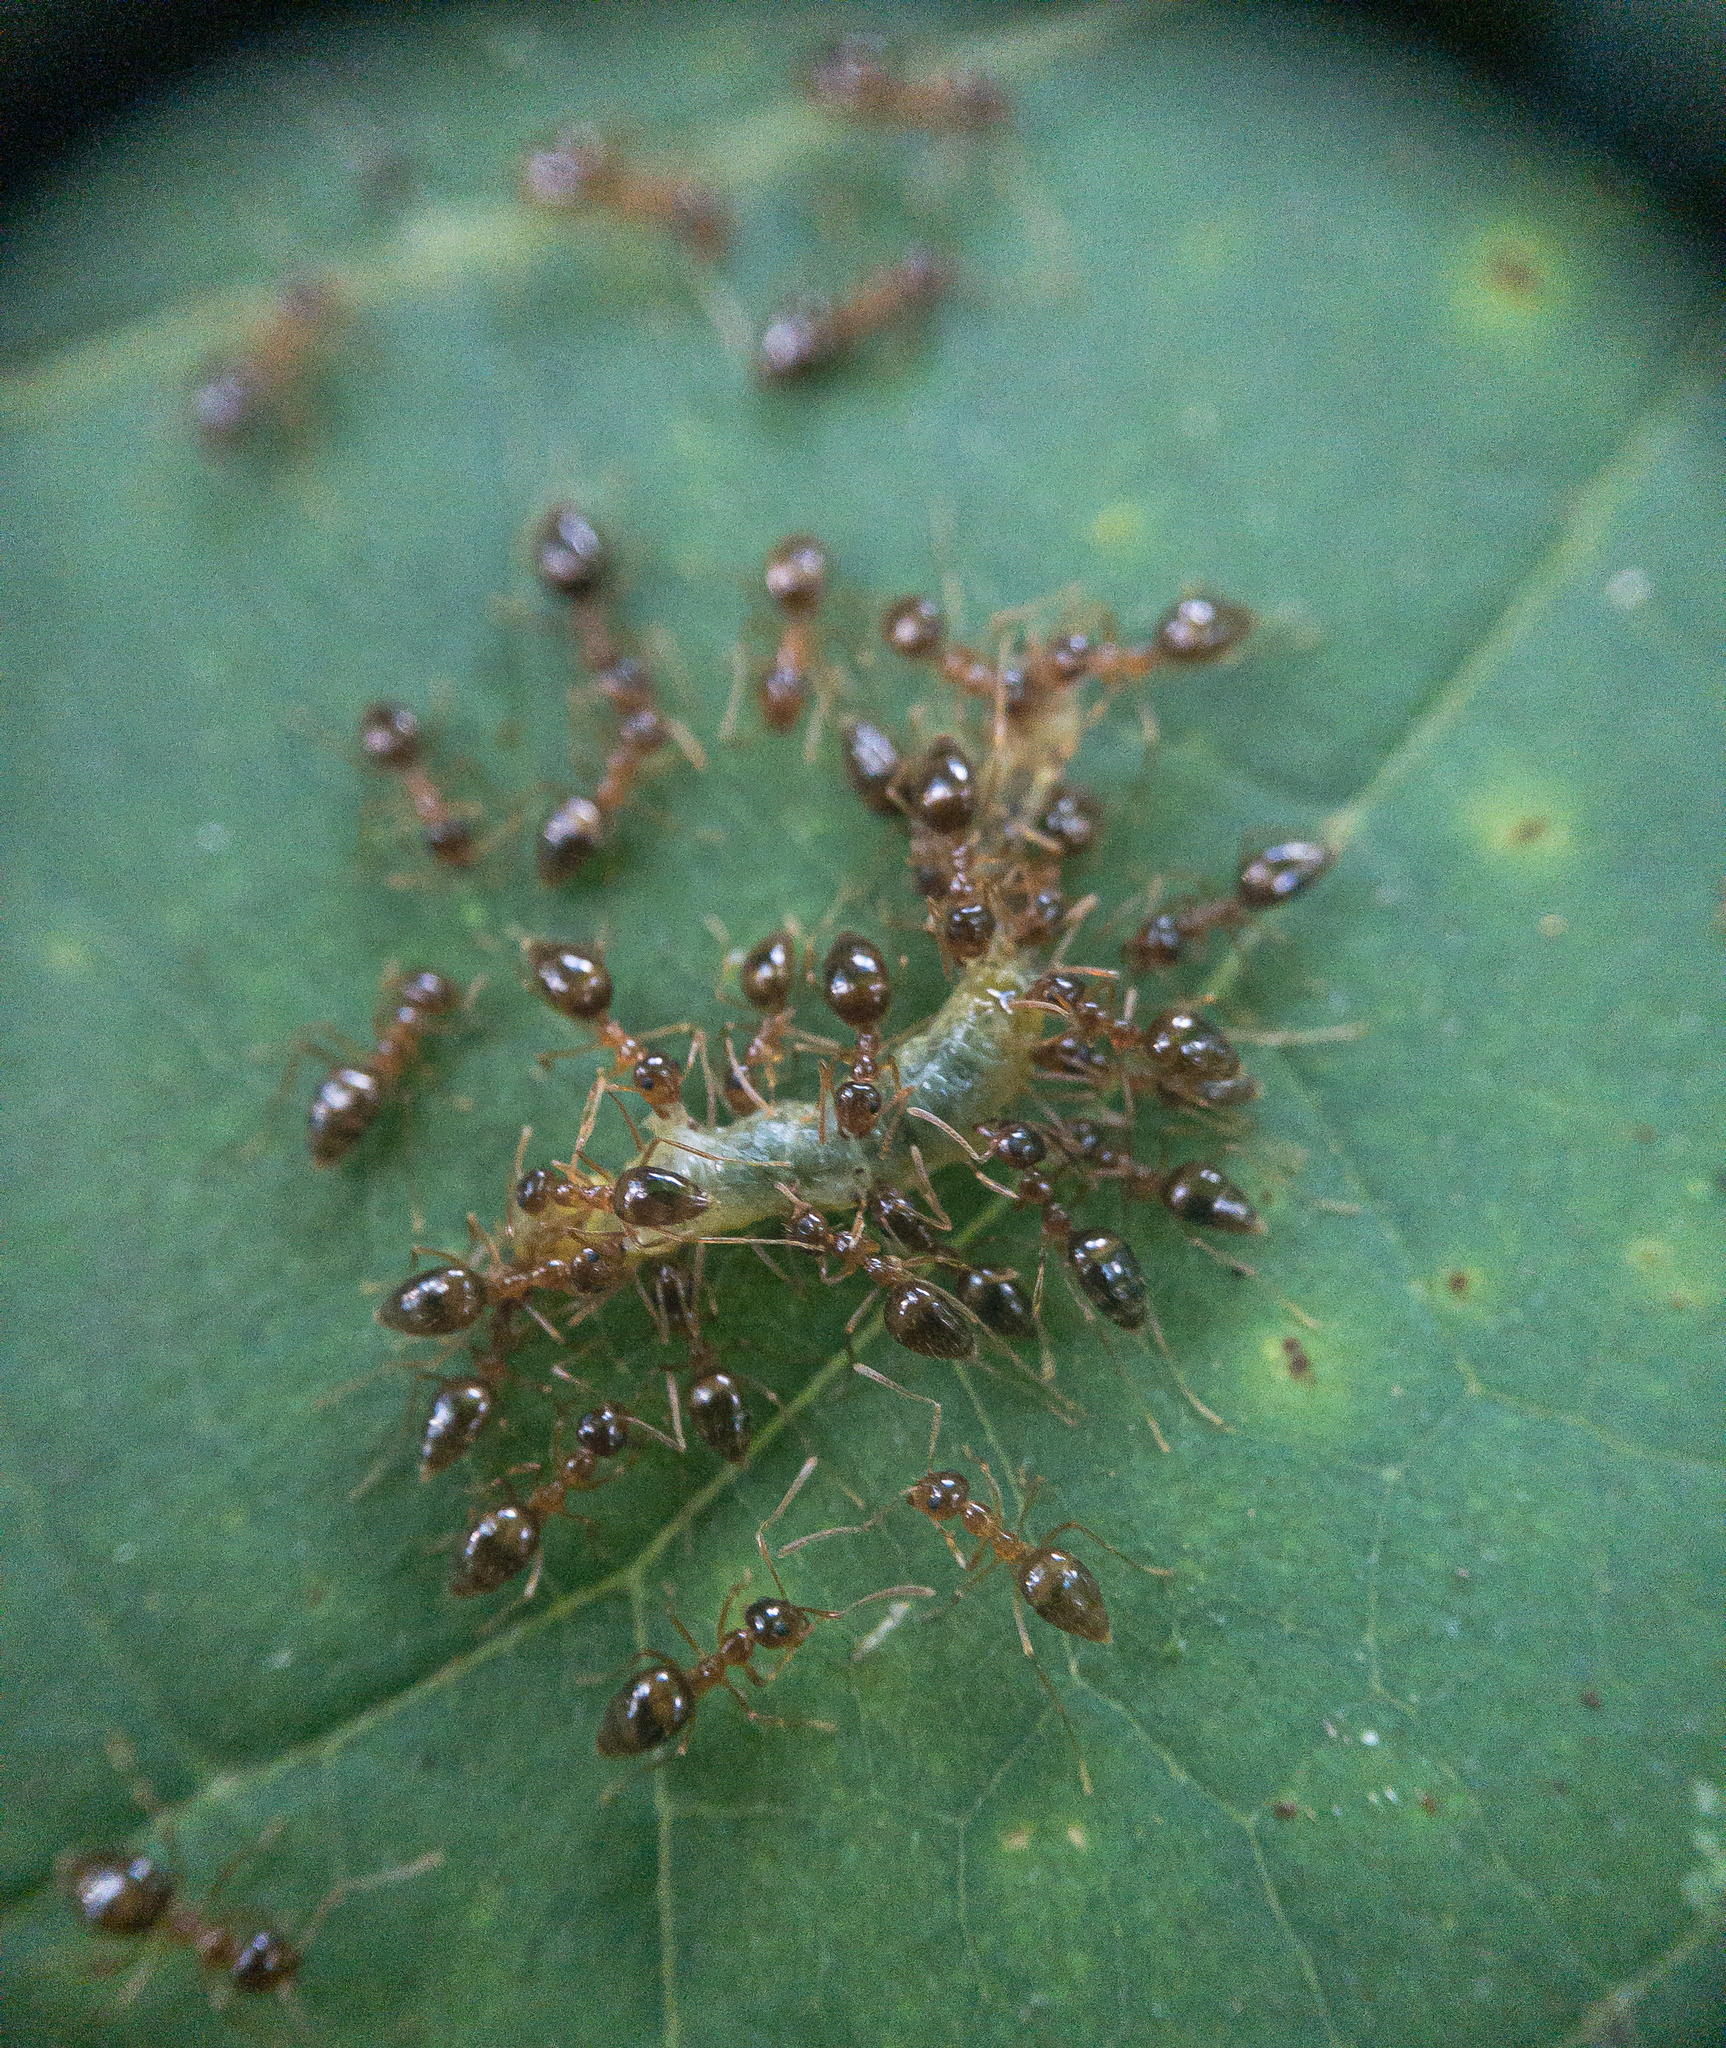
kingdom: Animalia
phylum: Arthropoda
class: Insecta
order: Hymenoptera
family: Formicidae
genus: Prenolepis
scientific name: Prenolepis imparis
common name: Small honey ant
